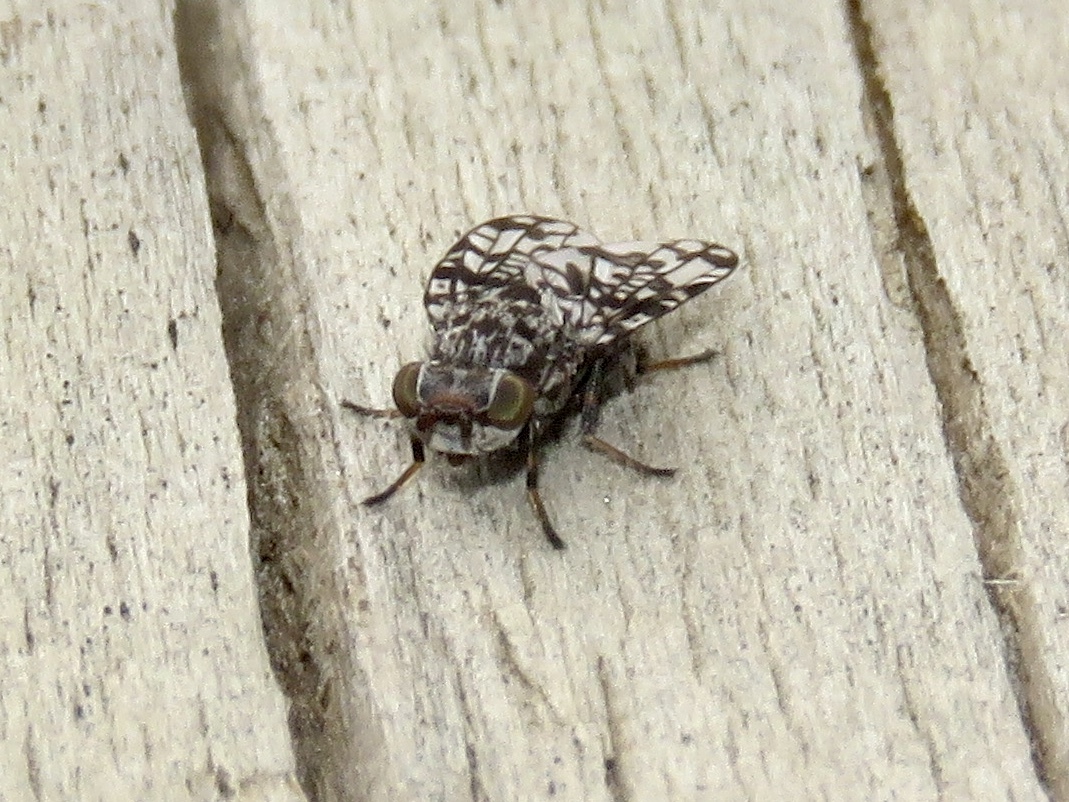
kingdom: Animalia
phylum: Arthropoda
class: Insecta
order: Diptera
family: Ulidiidae
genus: Pseudotephritis
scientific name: Pseudotephritis corticalis
